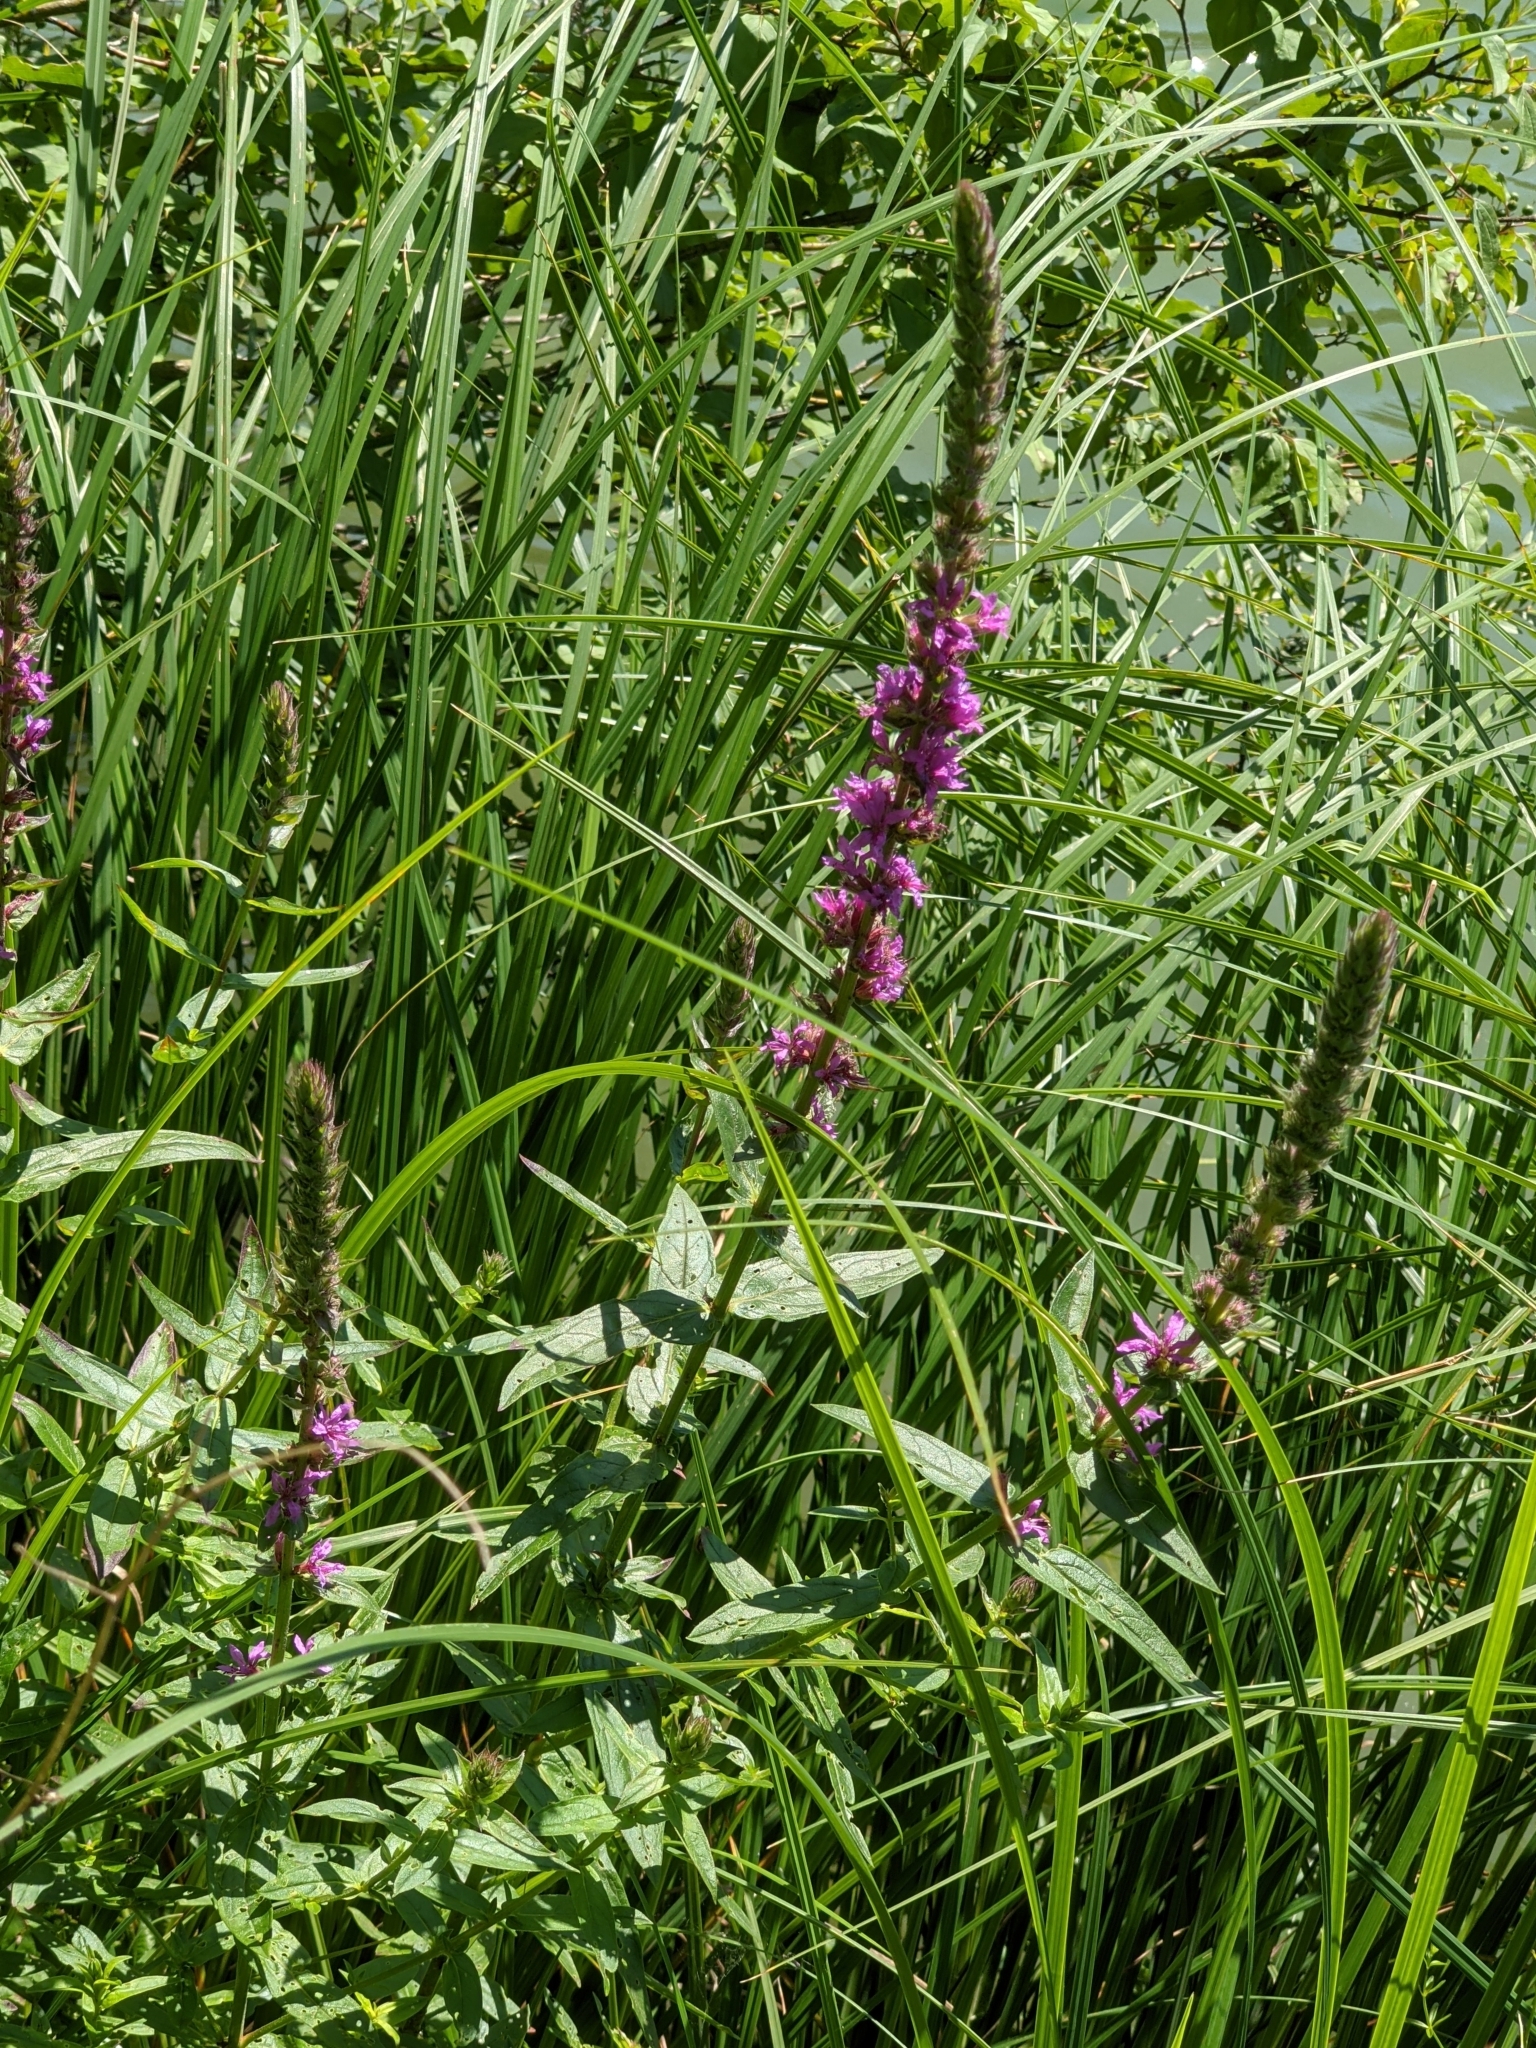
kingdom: Plantae
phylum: Tracheophyta
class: Magnoliopsida
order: Myrtales
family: Lythraceae
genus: Lythrum
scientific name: Lythrum salicaria
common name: Purple loosestrife
